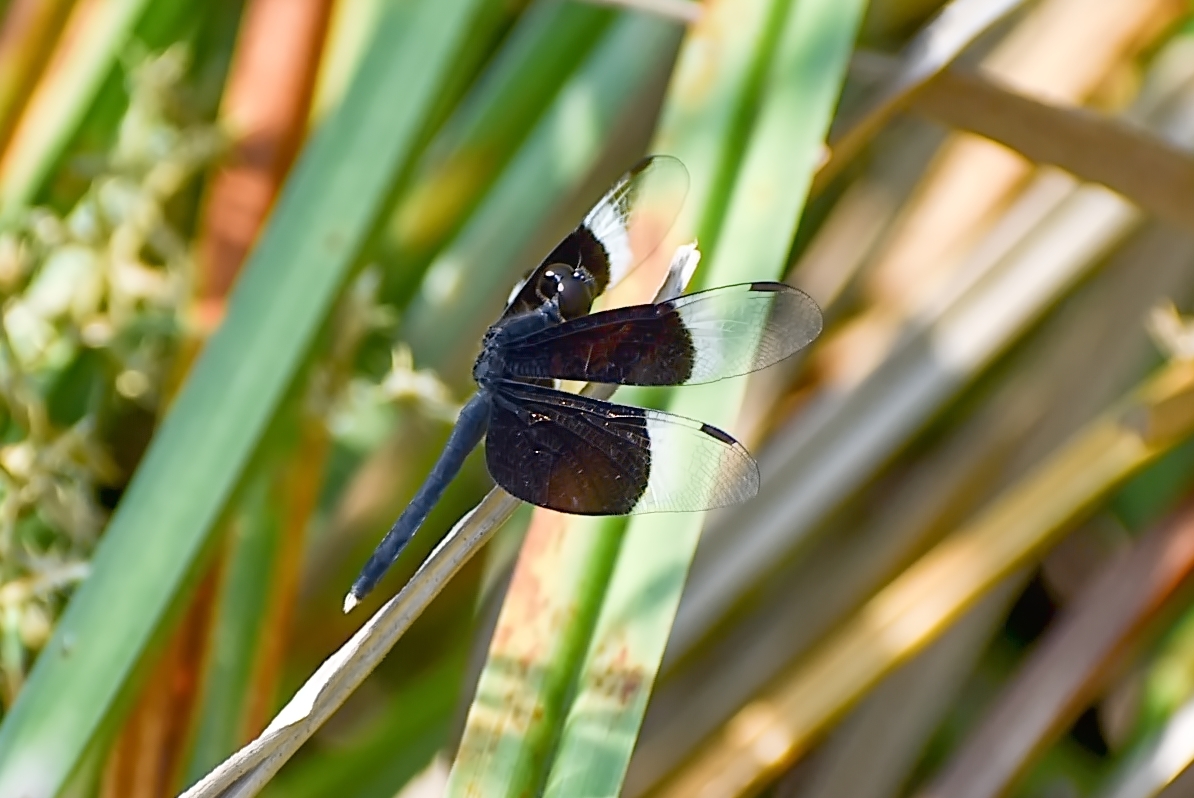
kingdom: Animalia
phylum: Arthropoda
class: Insecta
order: Odonata
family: Libellulidae
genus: Neurothemis
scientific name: Neurothemis tullia
